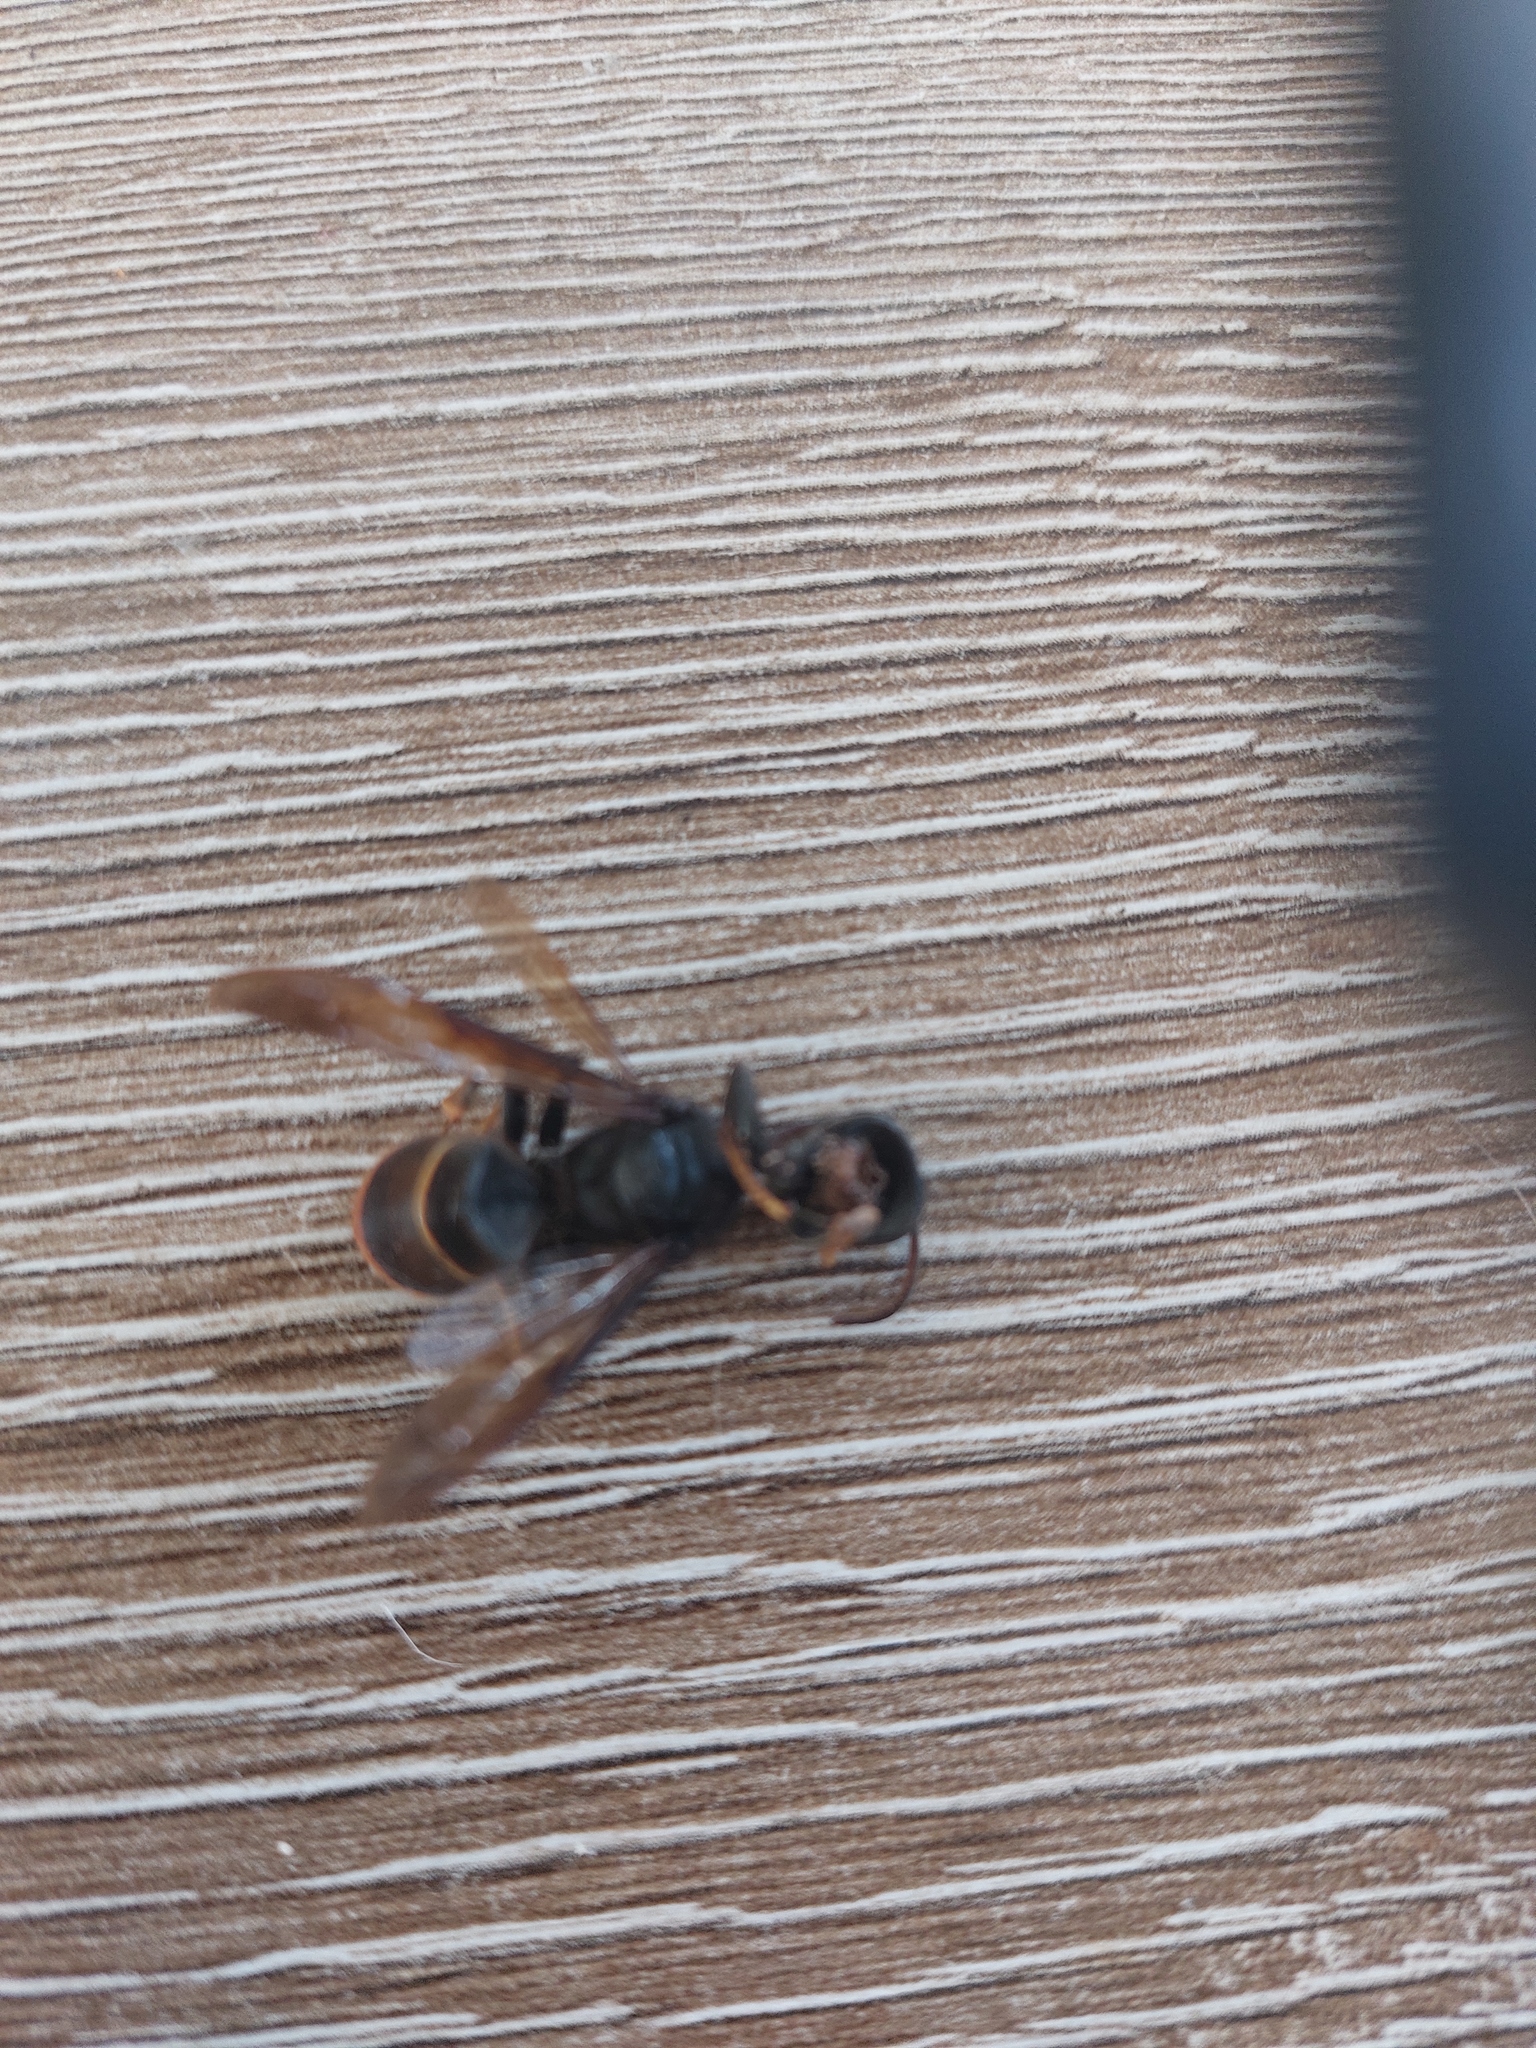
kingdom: Animalia
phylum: Arthropoda
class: Insecta
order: Hymenoptera
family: Vespidae
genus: Vespa
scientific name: Vespa velutina
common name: Asian hornet
